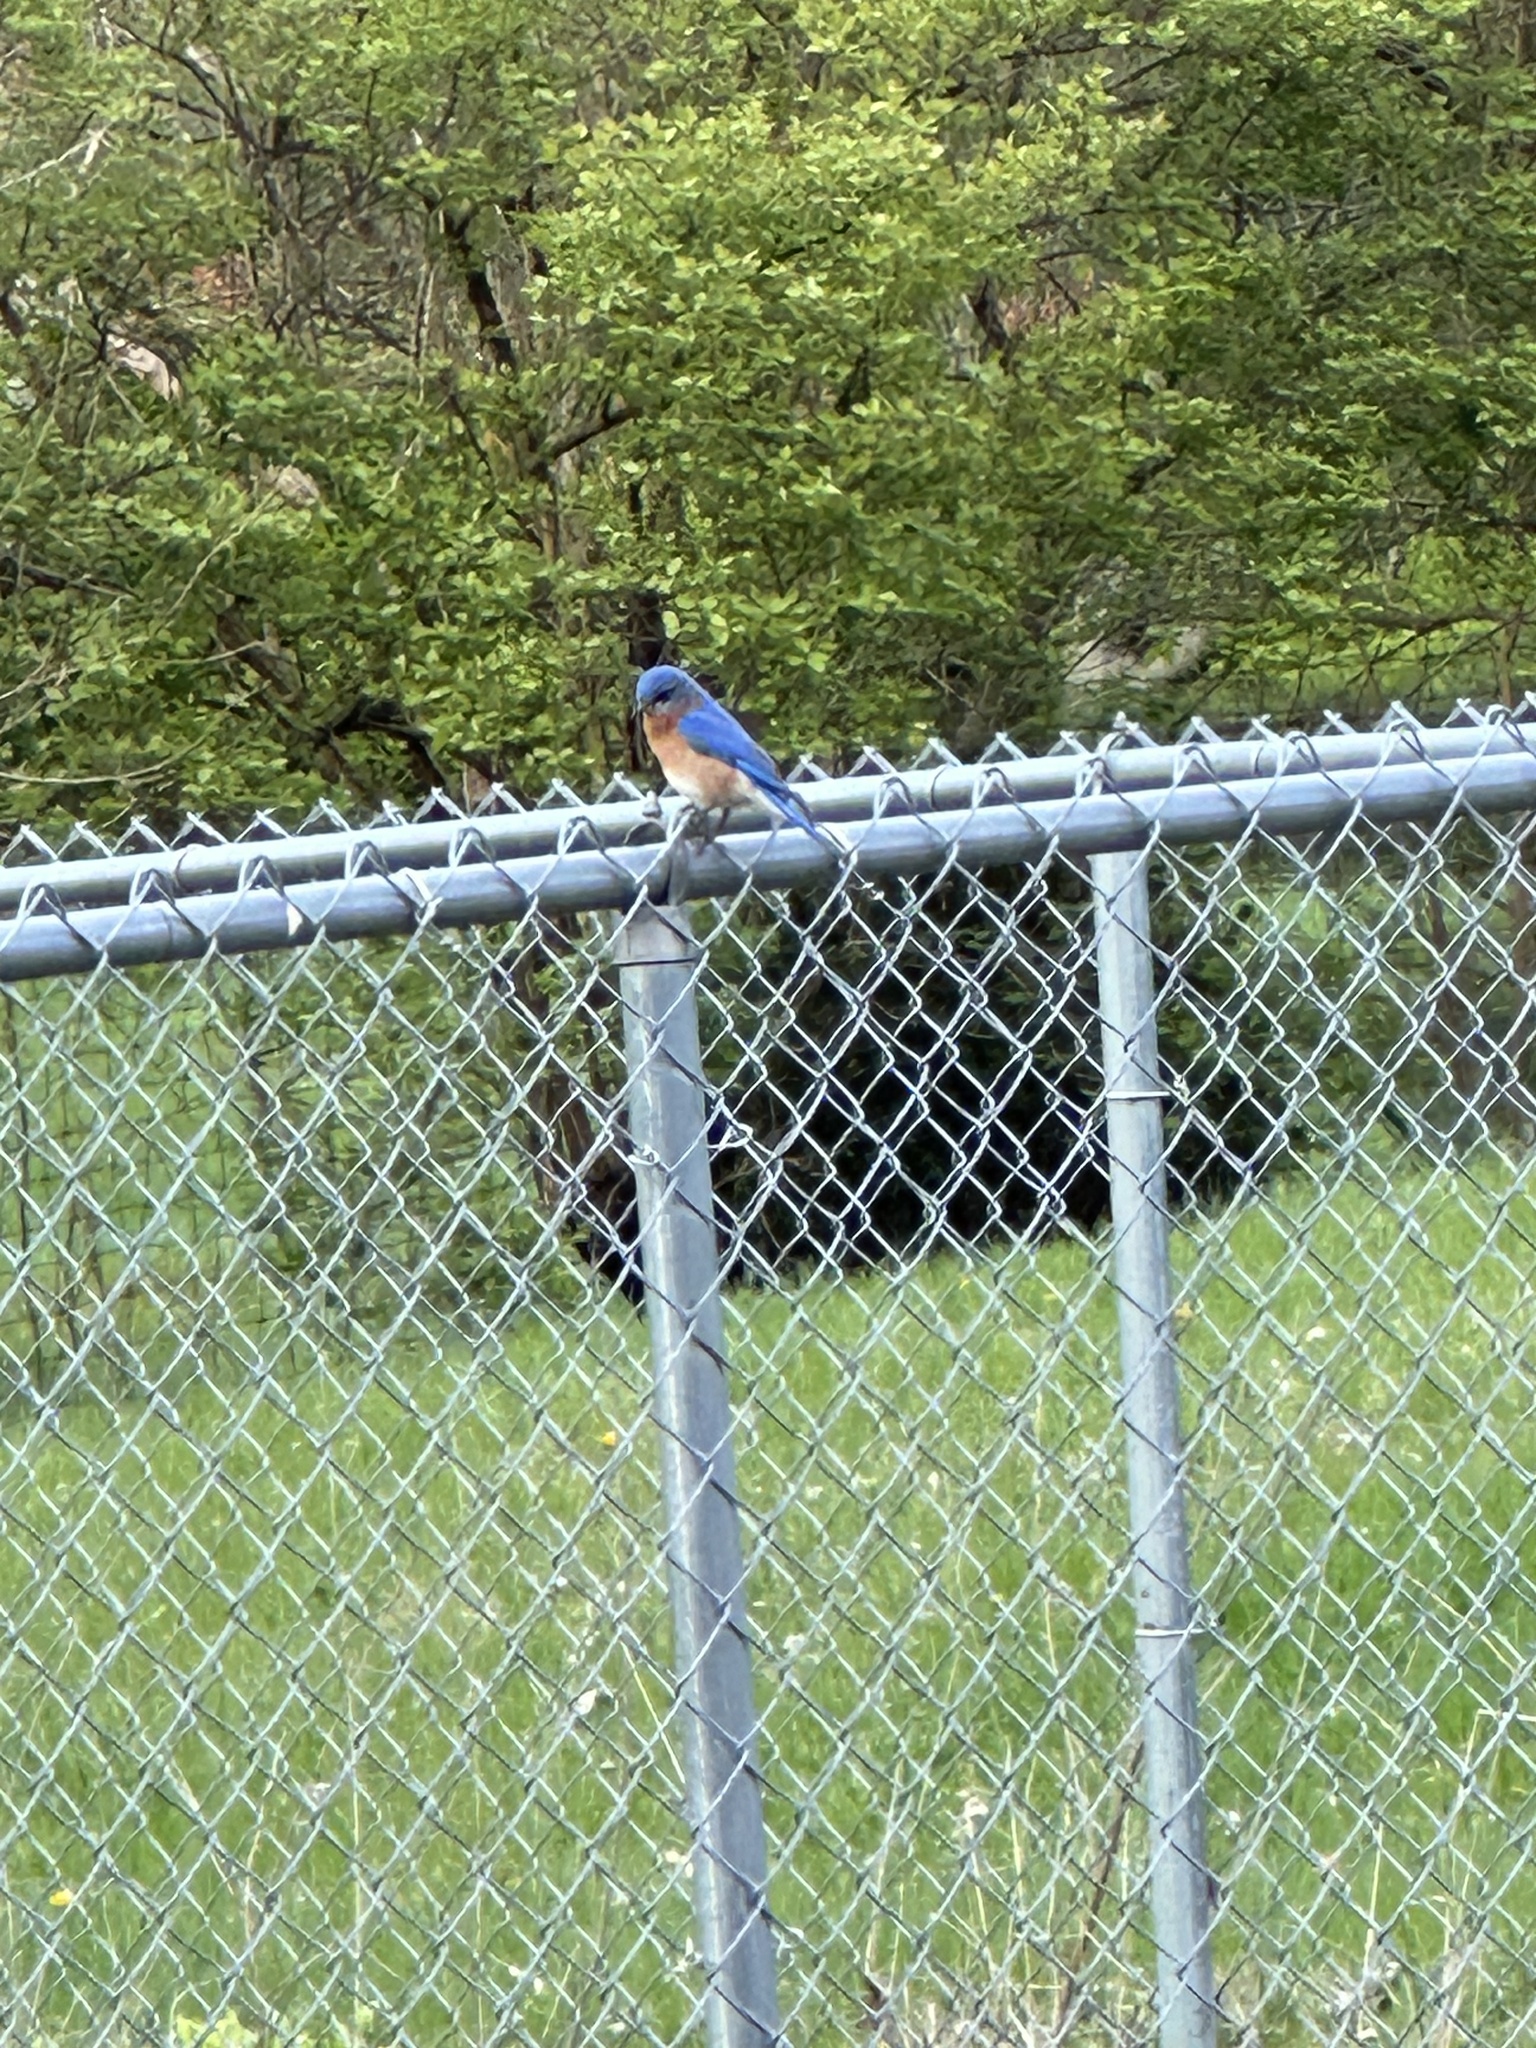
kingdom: Animalia
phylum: Chordata
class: Aves
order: Passeriformes
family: Turdidae
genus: Sialia
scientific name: Sialia sialis
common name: Eastern bluebird
